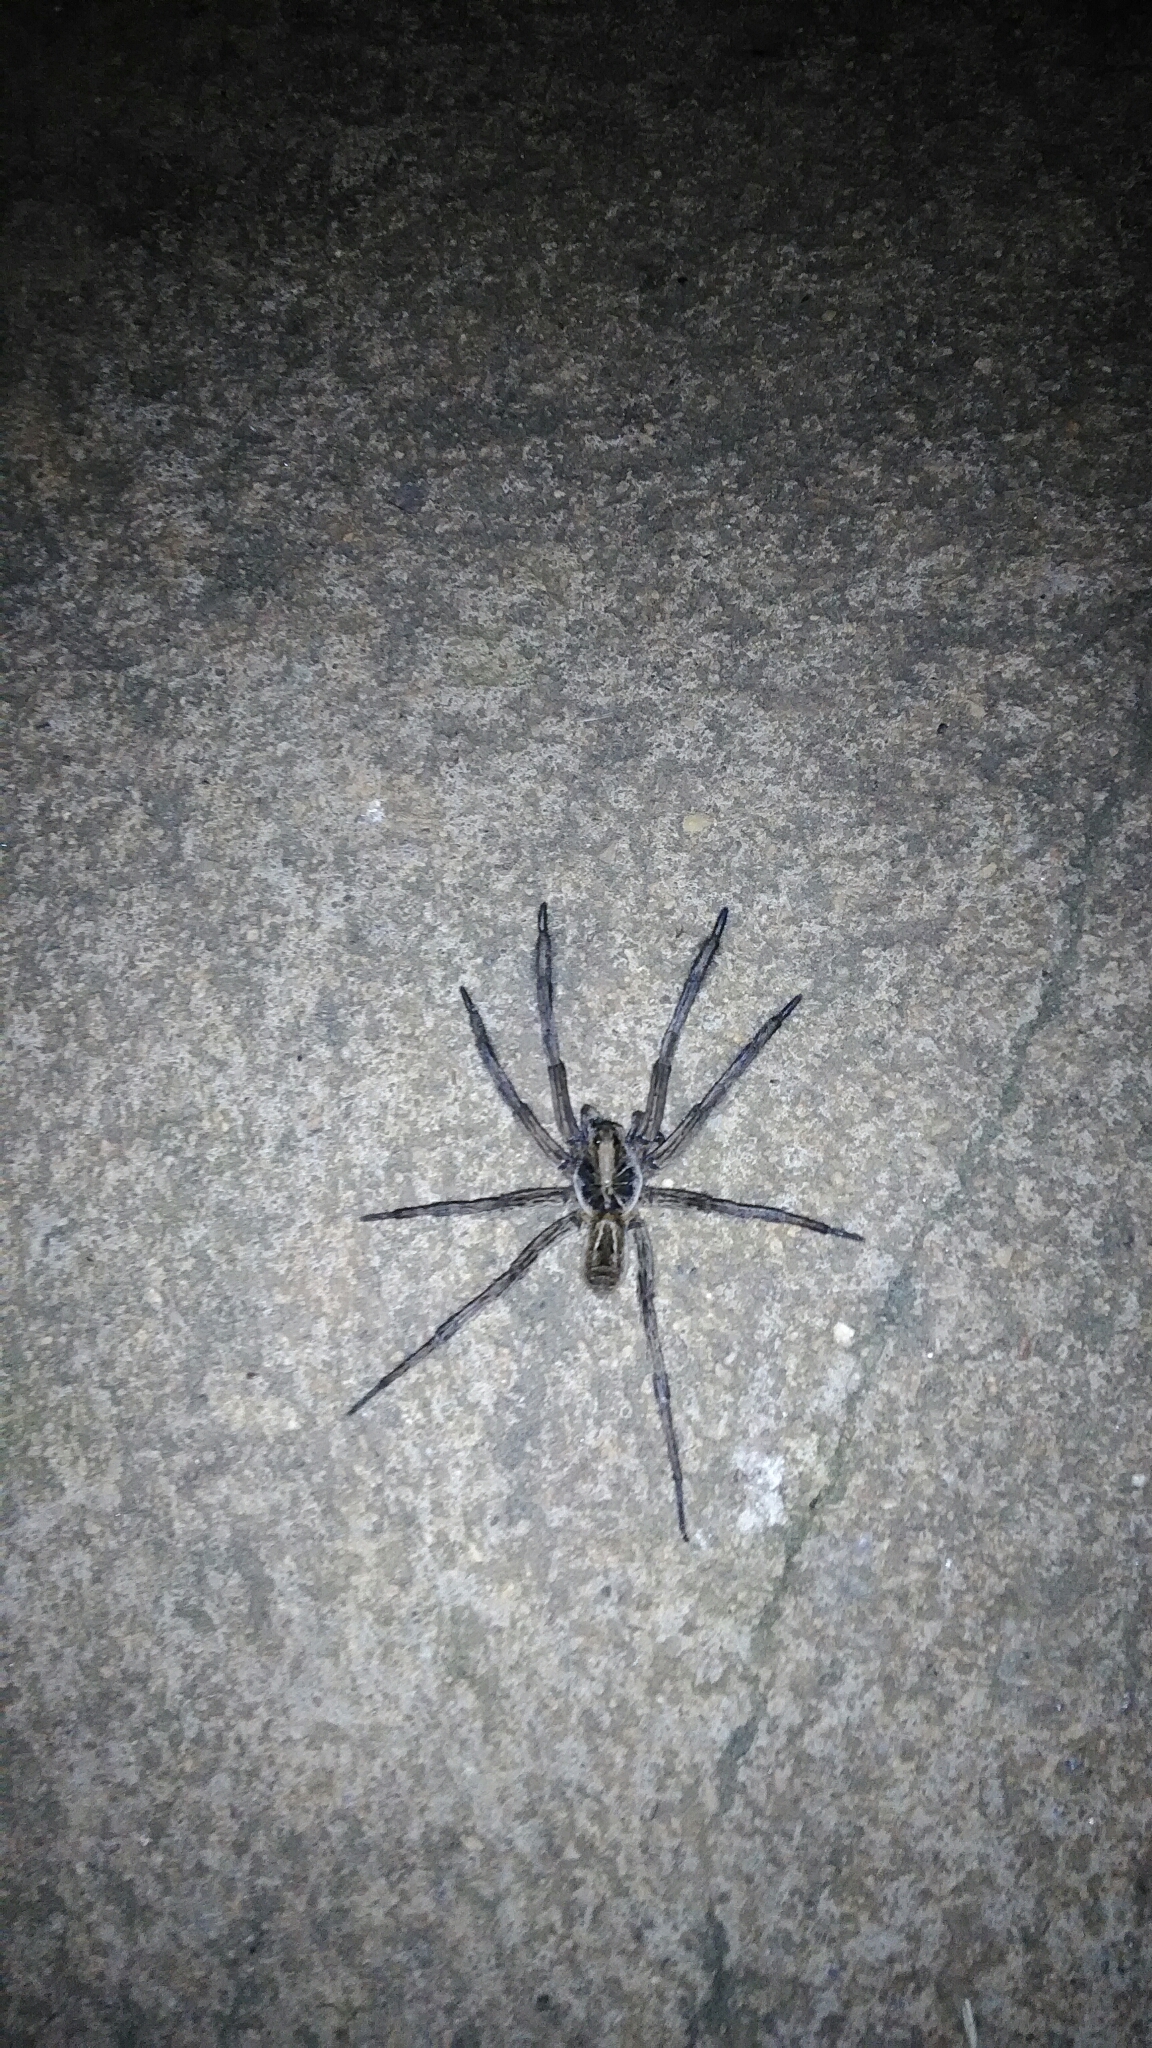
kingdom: Animalia
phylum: Arthropoda
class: Arachnida
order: Araneae
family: Lycosidae
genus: Lycosa
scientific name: Lycosa erythrognatha
